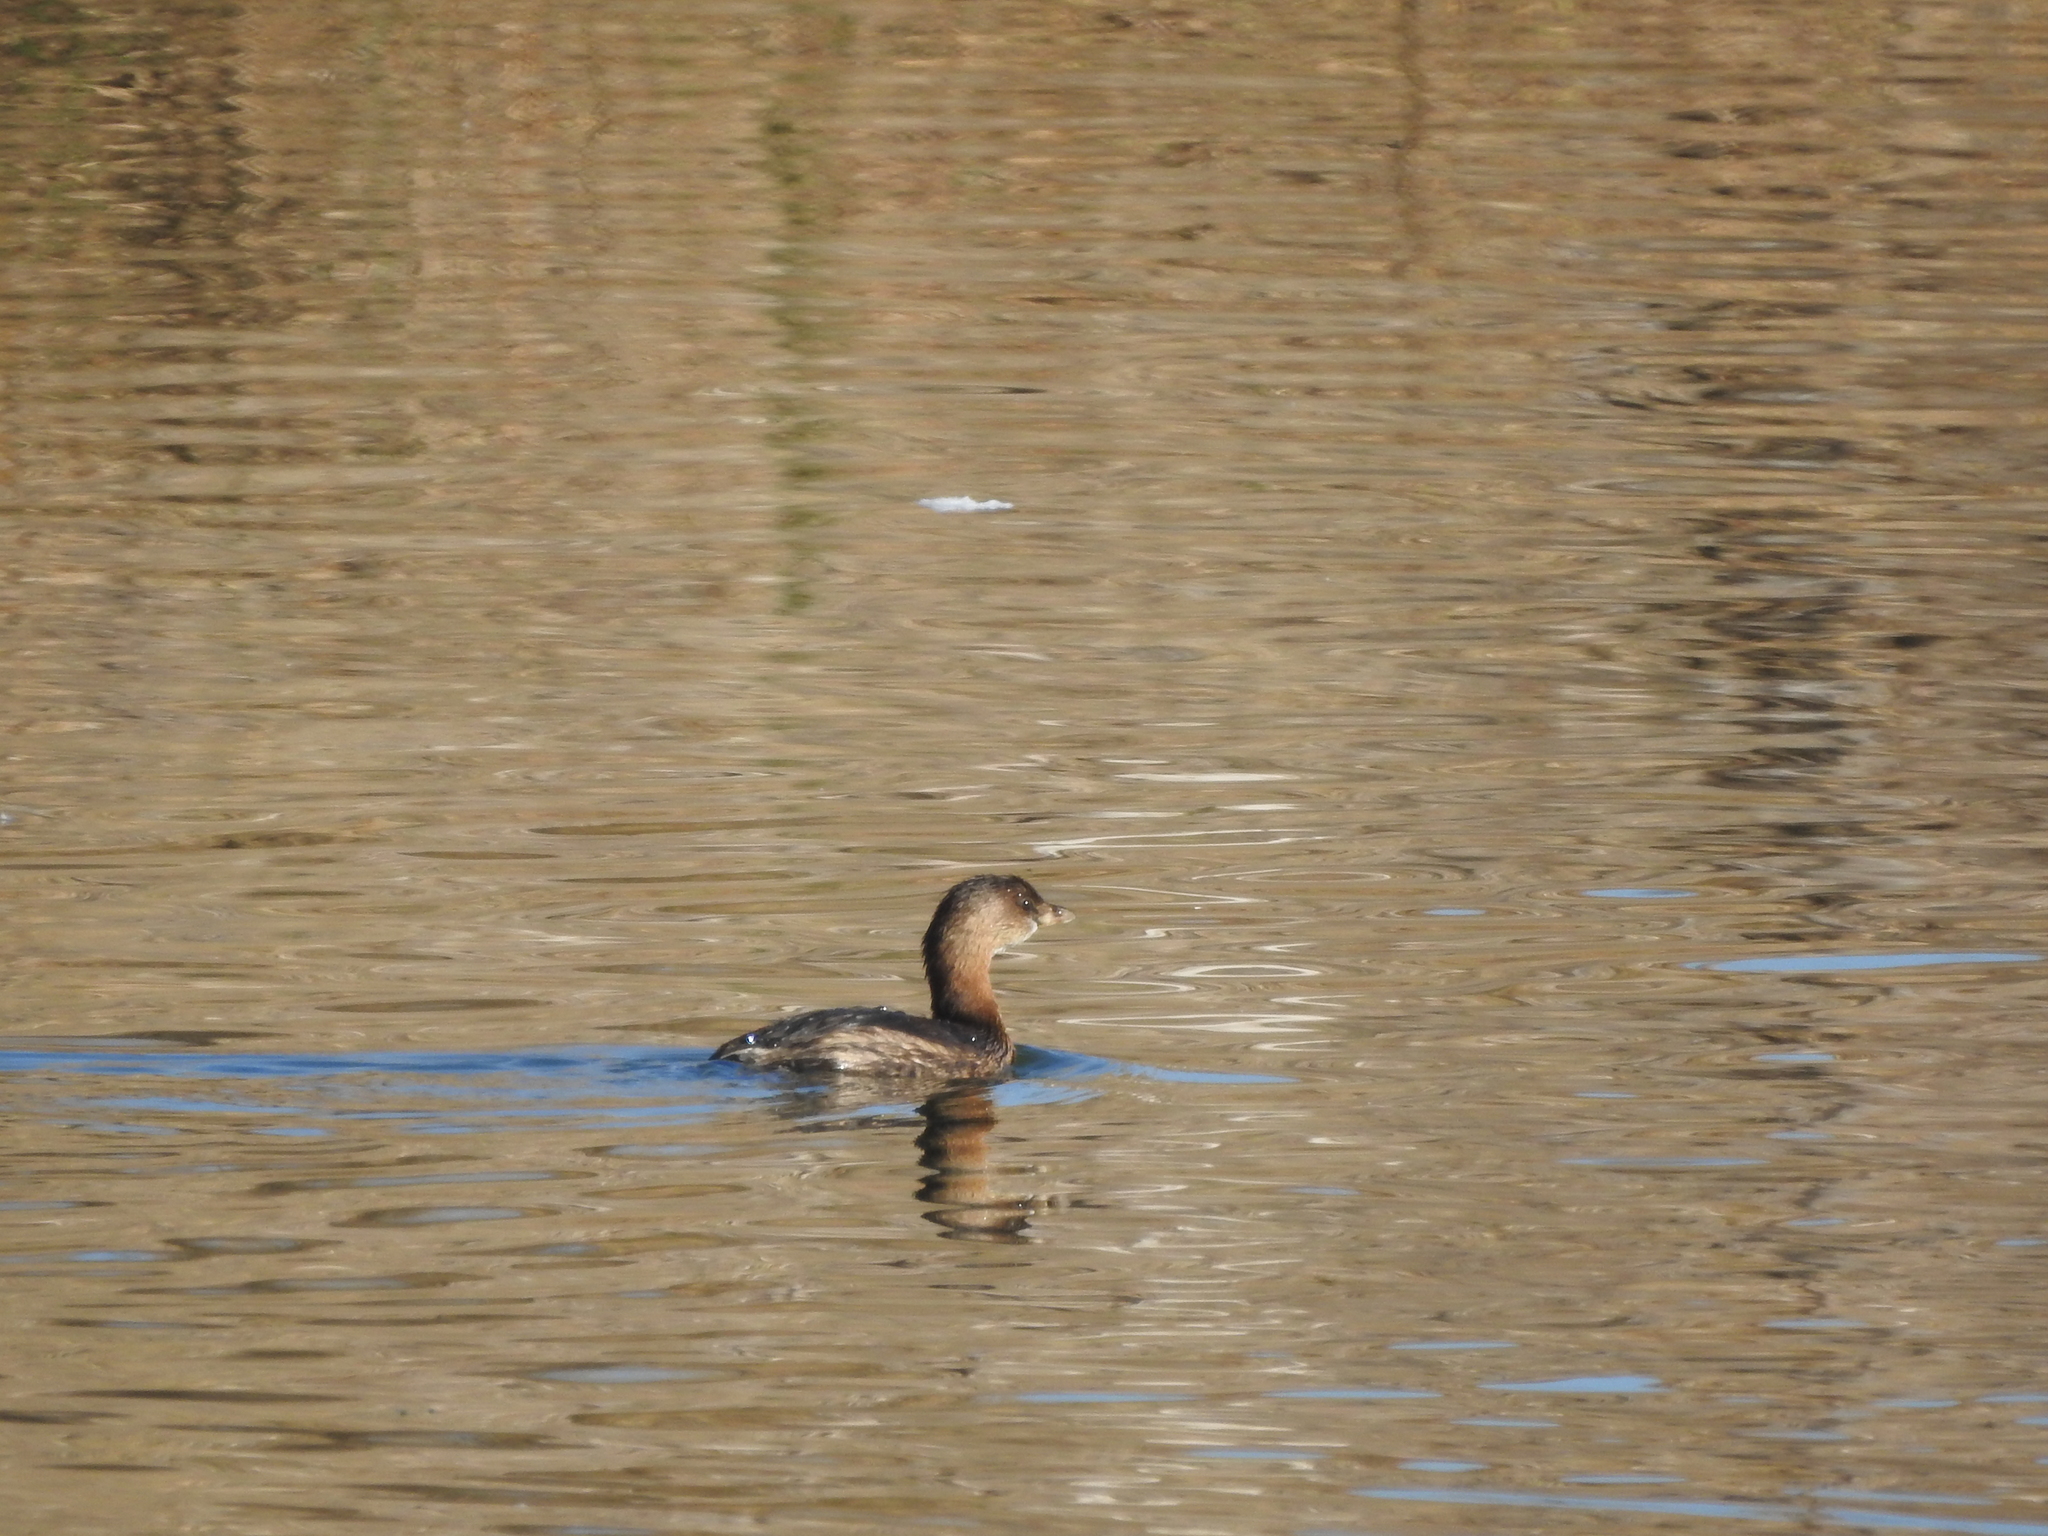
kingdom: Animalia
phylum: Chordata
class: Aves
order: Podicipediformes
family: Podicipedidae
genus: Podilymbus
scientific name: Podilymbus podiceps
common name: Pied-billed grebe
